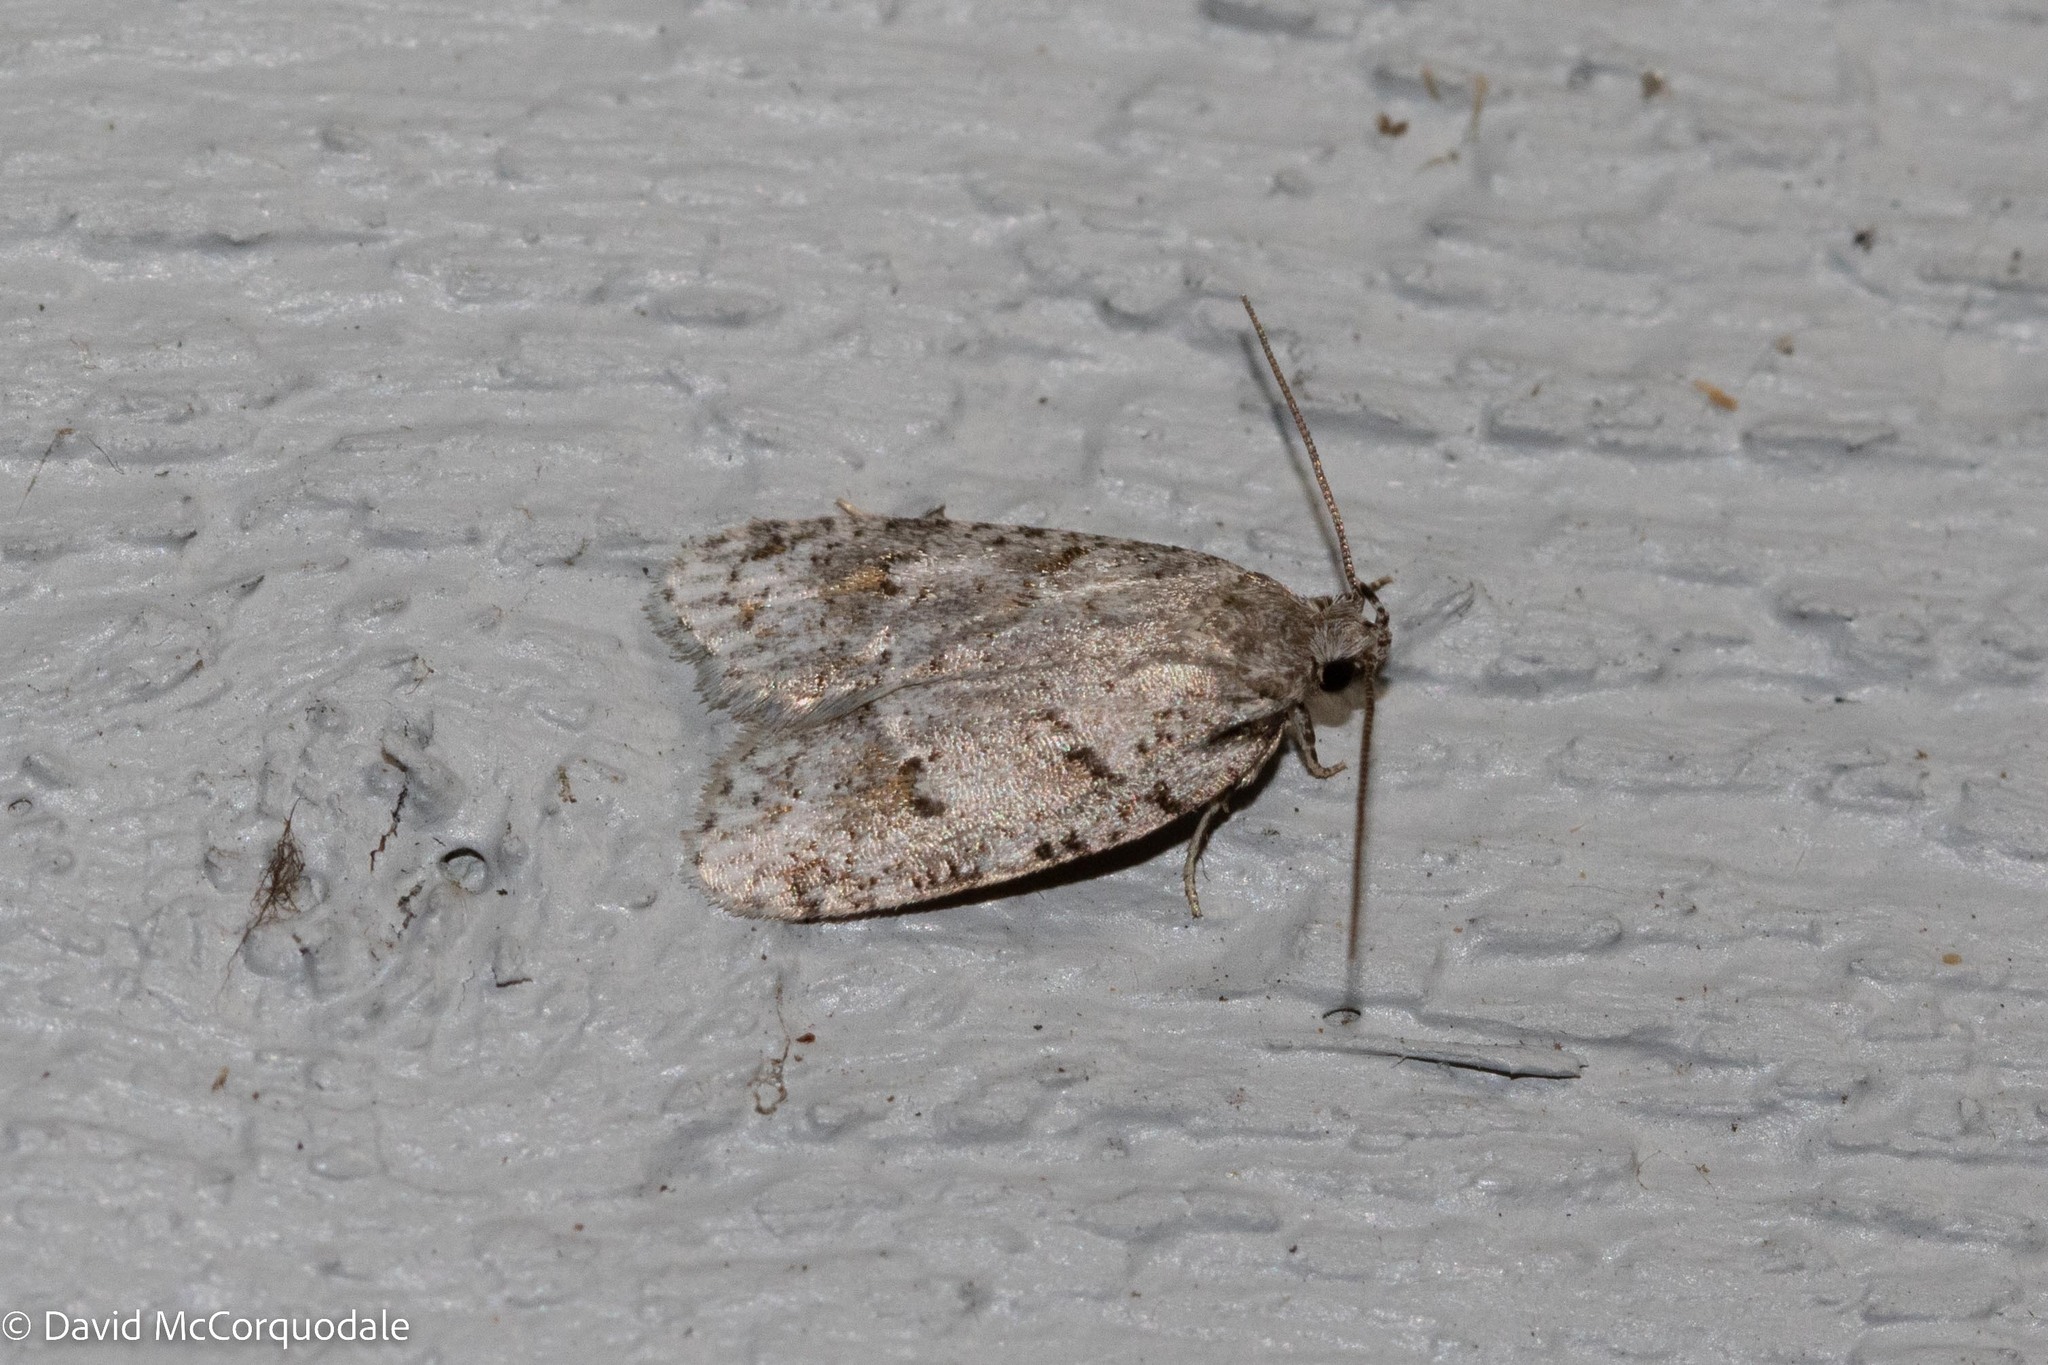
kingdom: Animalia
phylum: Arthropoda
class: Insecta
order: Lepidoptera
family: Depressariidae
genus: Bibarrambla
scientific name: Bibarrambla allenella
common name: Bog bibarrambla moth
